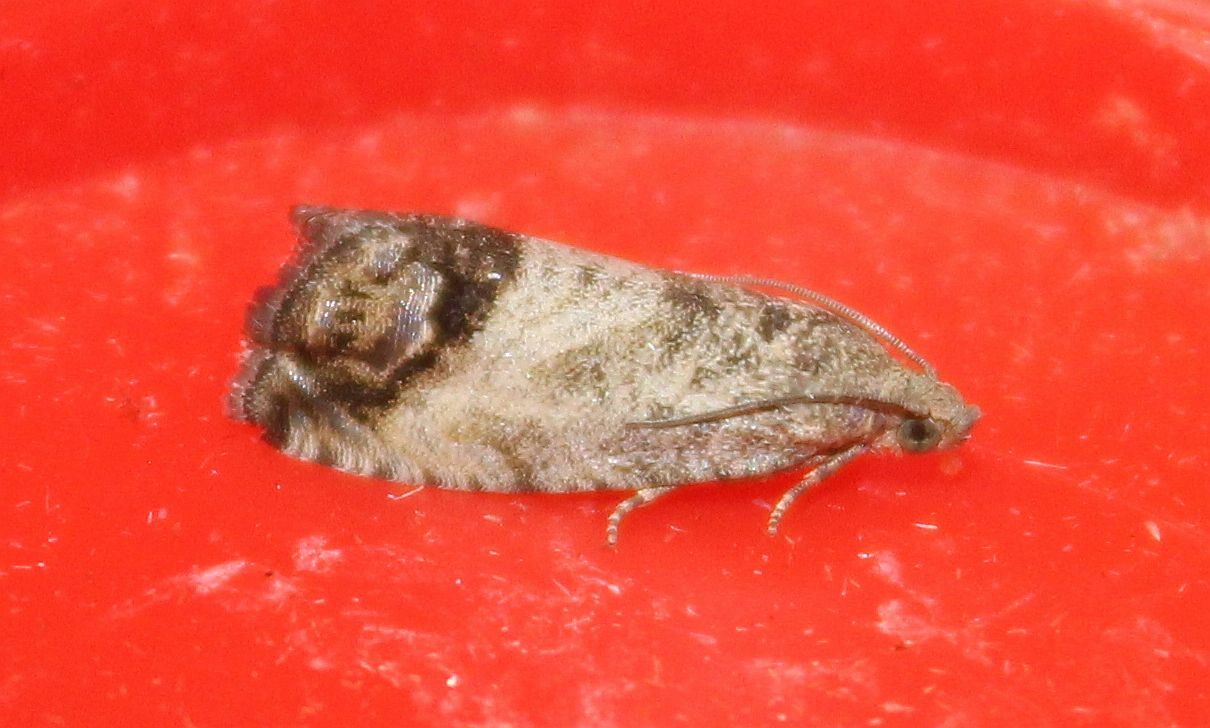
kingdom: Animalia
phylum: Arthropoda
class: Insecta
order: Lepidoptera
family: Tortricidae
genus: Cydia
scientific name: Cydia splendana
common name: De: kastanienwickler, eichenwickler es: oruga de la castaña fr: carpocapse des châtaignes it: cidia o tortrice tardiva delle castagne pt: bichado das castanhas gb: acorn moth, chestnut fruit tortrix
